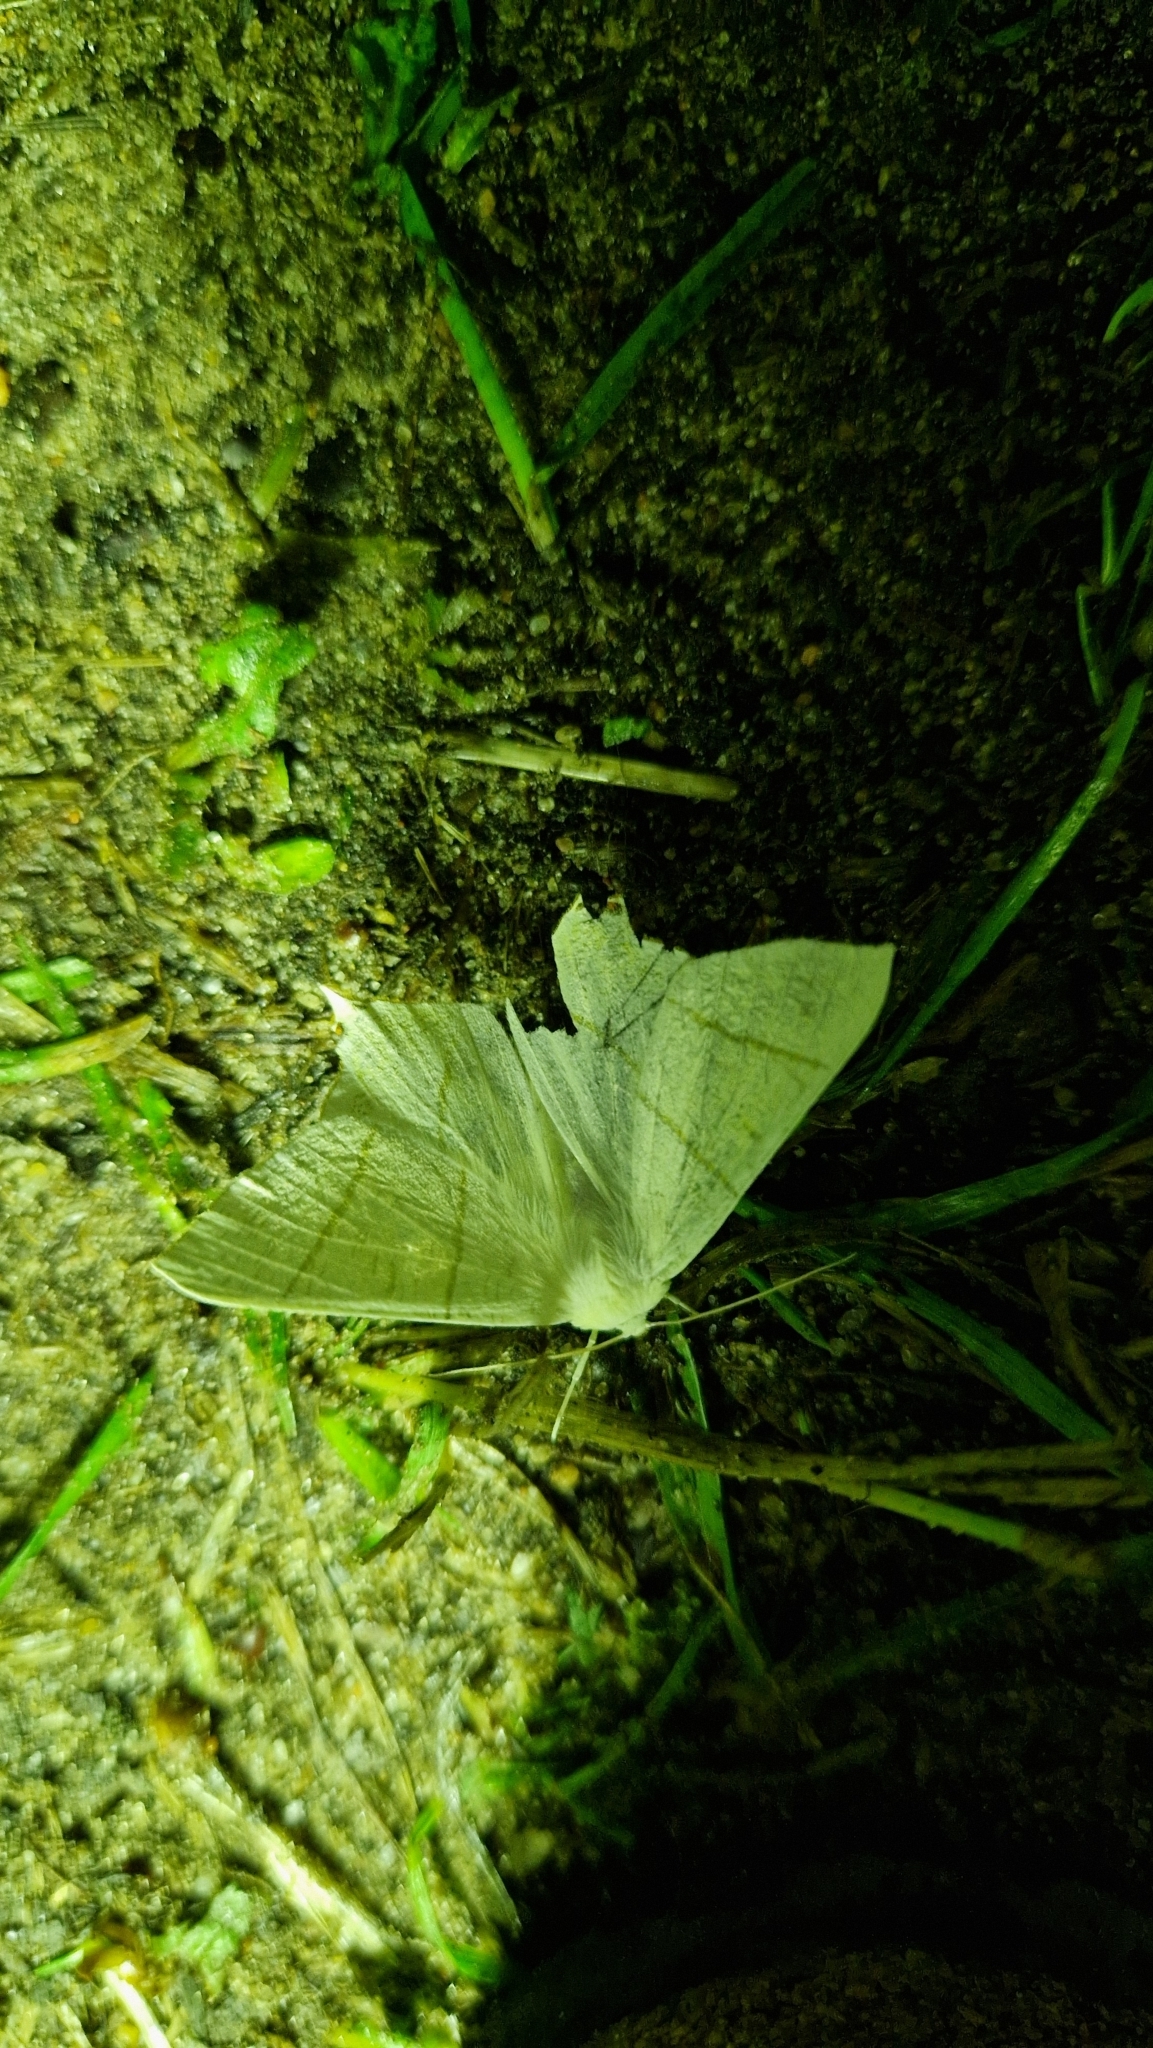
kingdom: Animalia
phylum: Arthropoda
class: Insecta
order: Lepidoptera
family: Geometridae
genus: Ourapteryx
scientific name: Ourapteryx sambucaria
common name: Swallow-tailed moth
